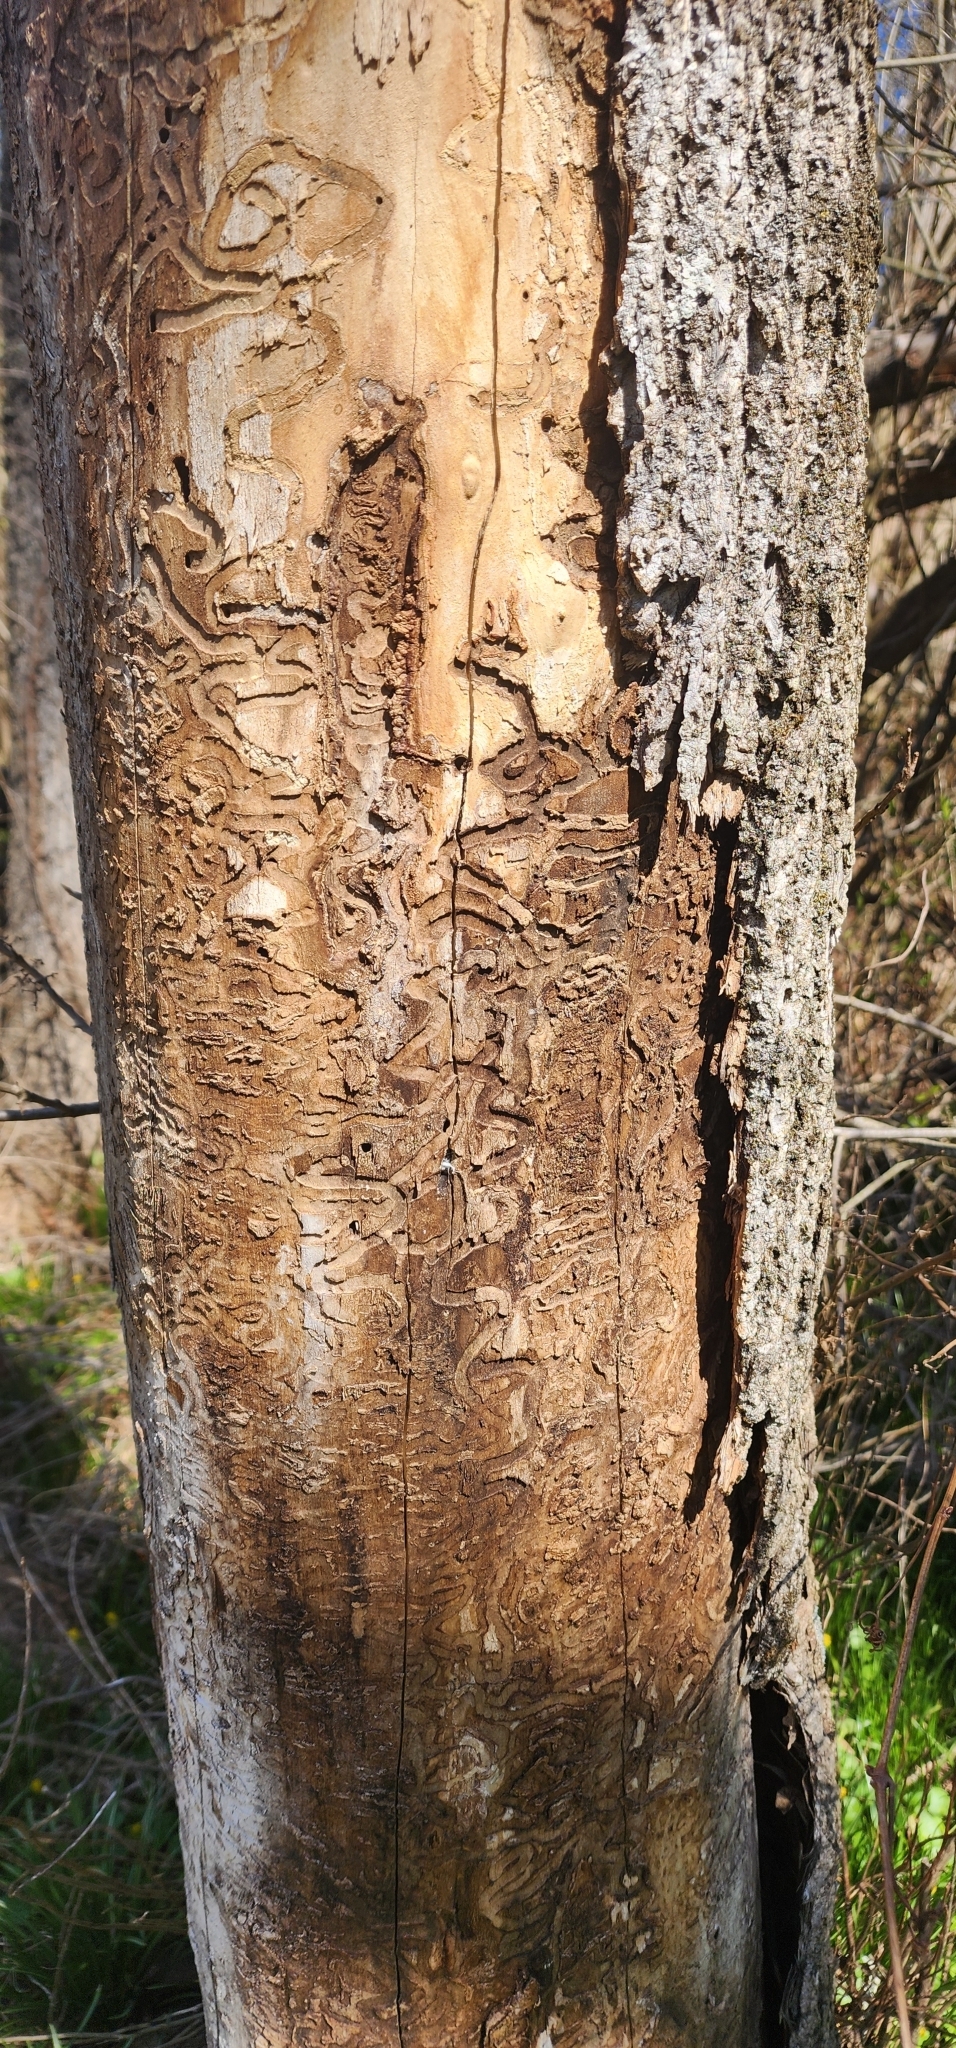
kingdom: Animalia
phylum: Arthropoda
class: Insecta
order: Coleoptera
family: Buprestidae
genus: Agrilus
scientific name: Agrilus planipennis
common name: Emerald ash borer
